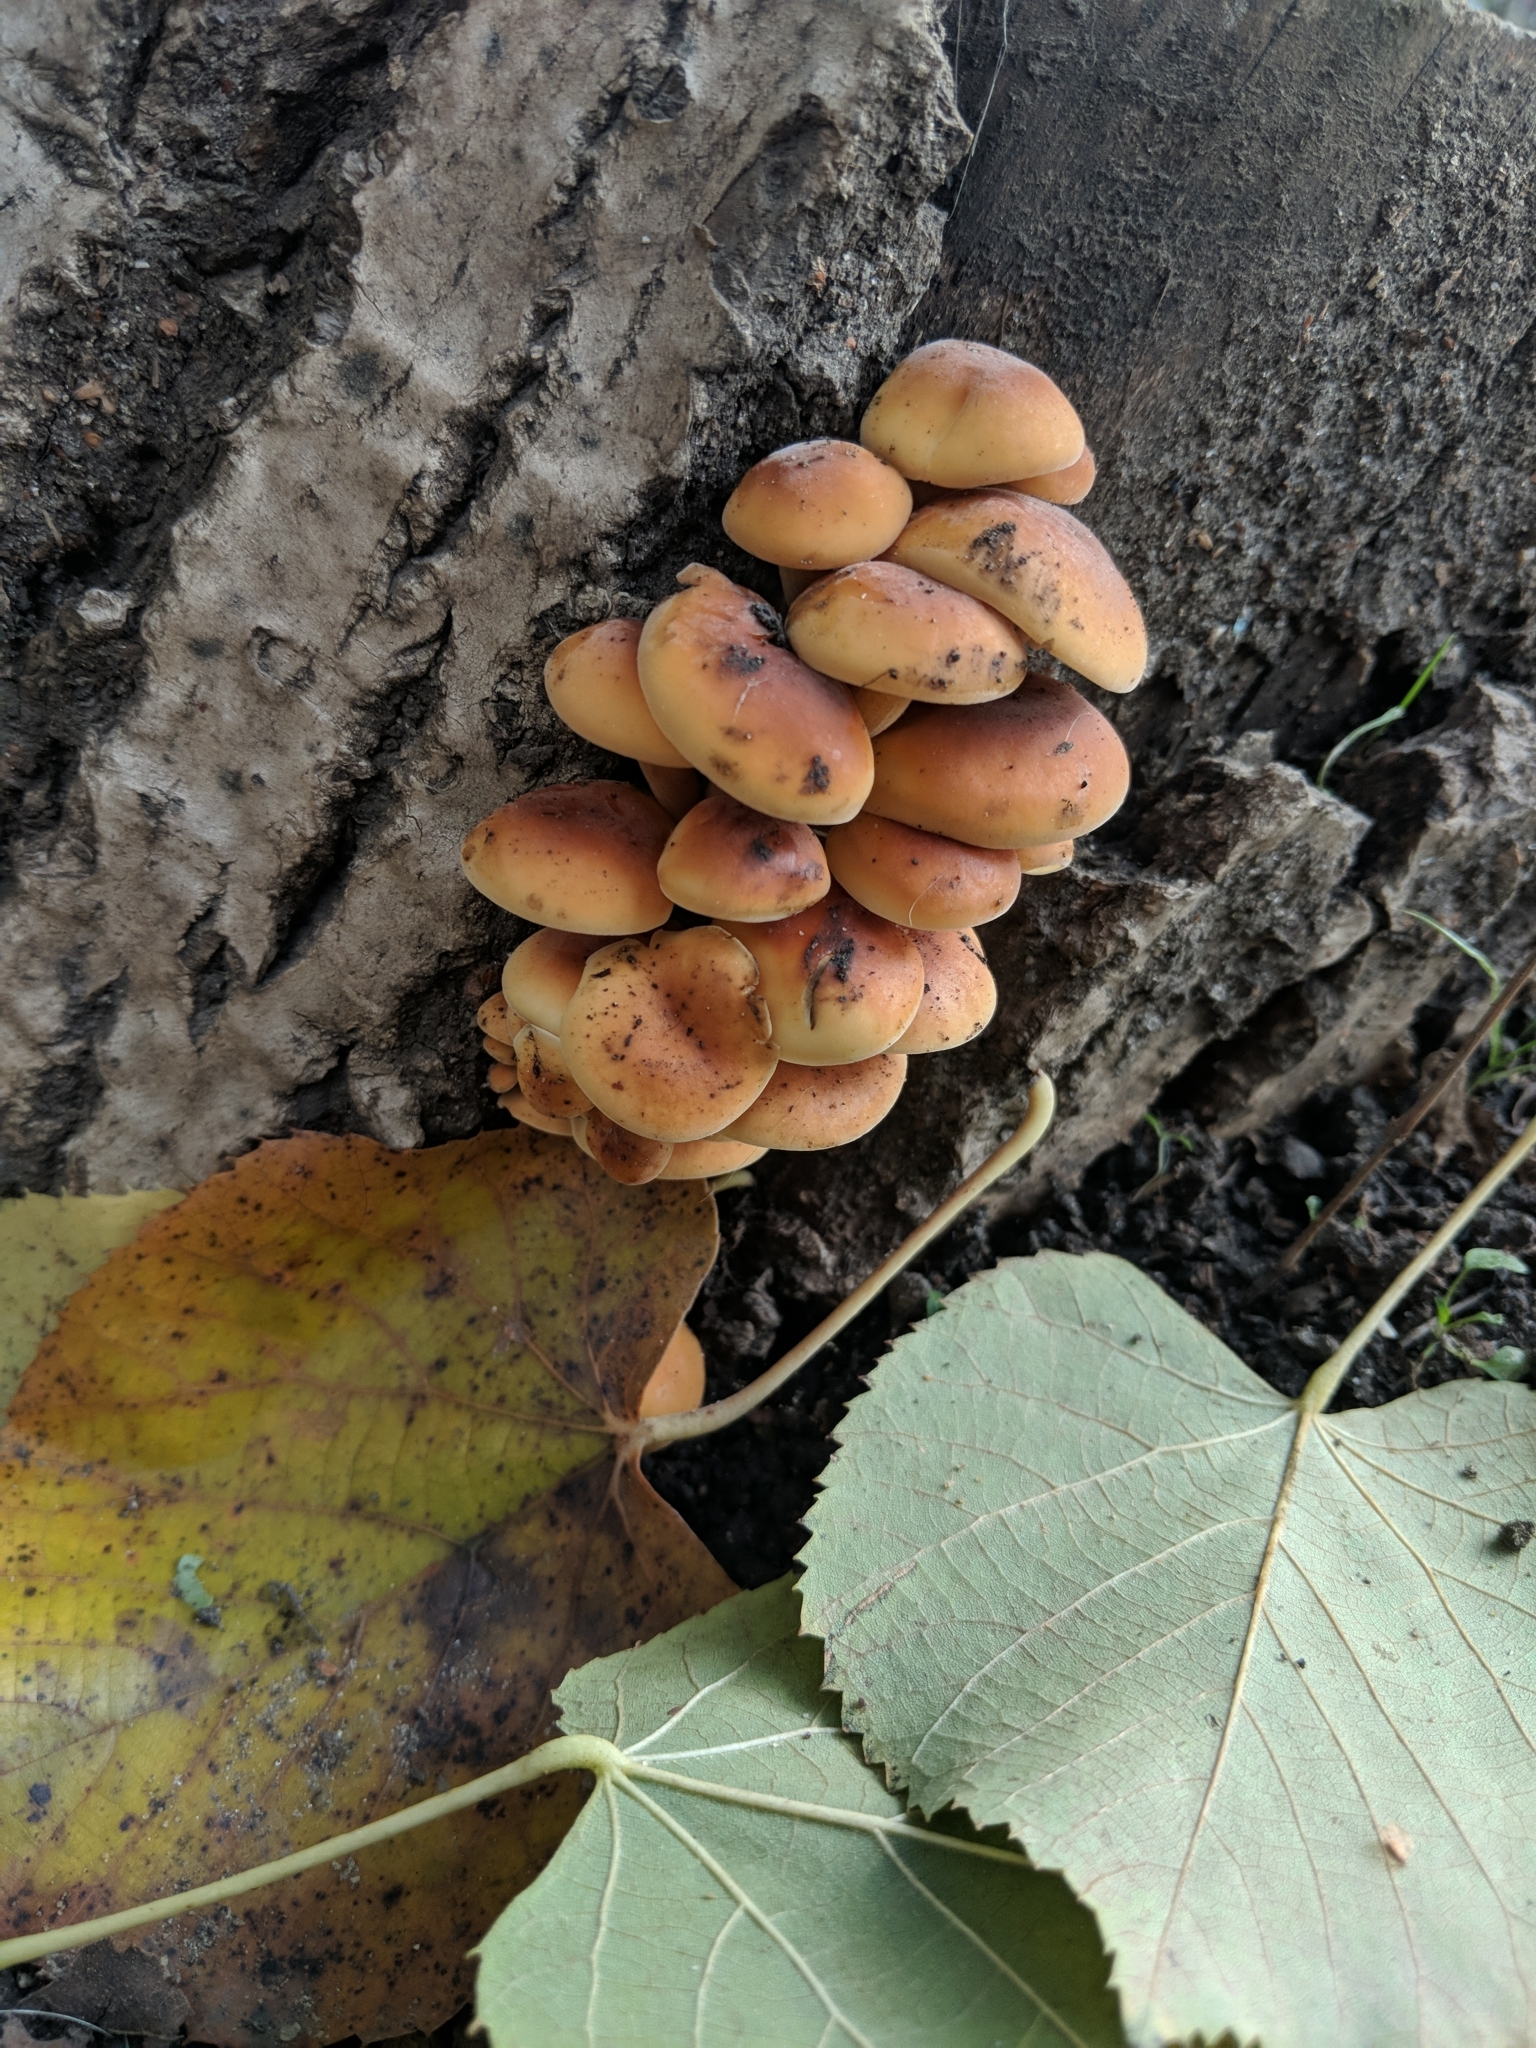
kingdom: Fungi
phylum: Basidiomycota
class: Agaricomycetes
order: Agaricales
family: Physalacriaceae
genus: Flammulina
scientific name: Flammulina
